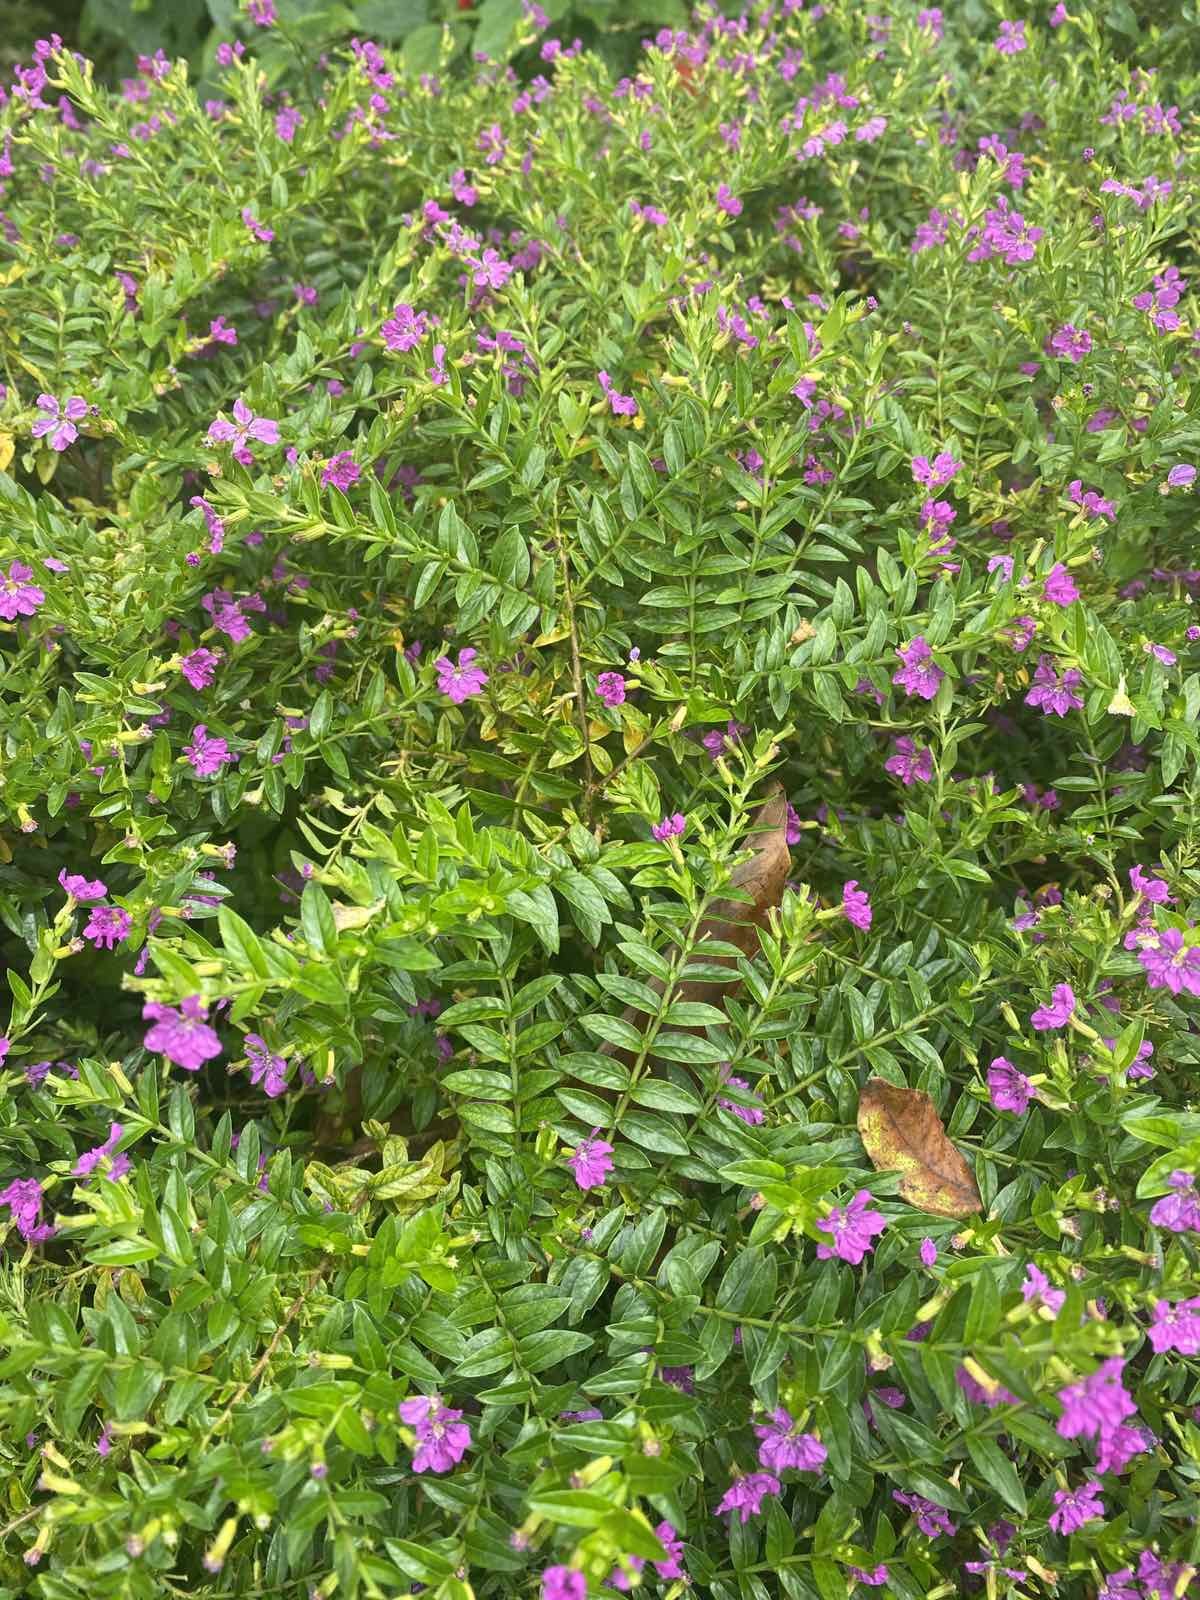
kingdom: Plantae
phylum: Tracheophyta
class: Magnoliopsida
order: Myrtales
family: Lythraceae
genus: Cuphea
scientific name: Cuphea hyssopifolia
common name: False heather
